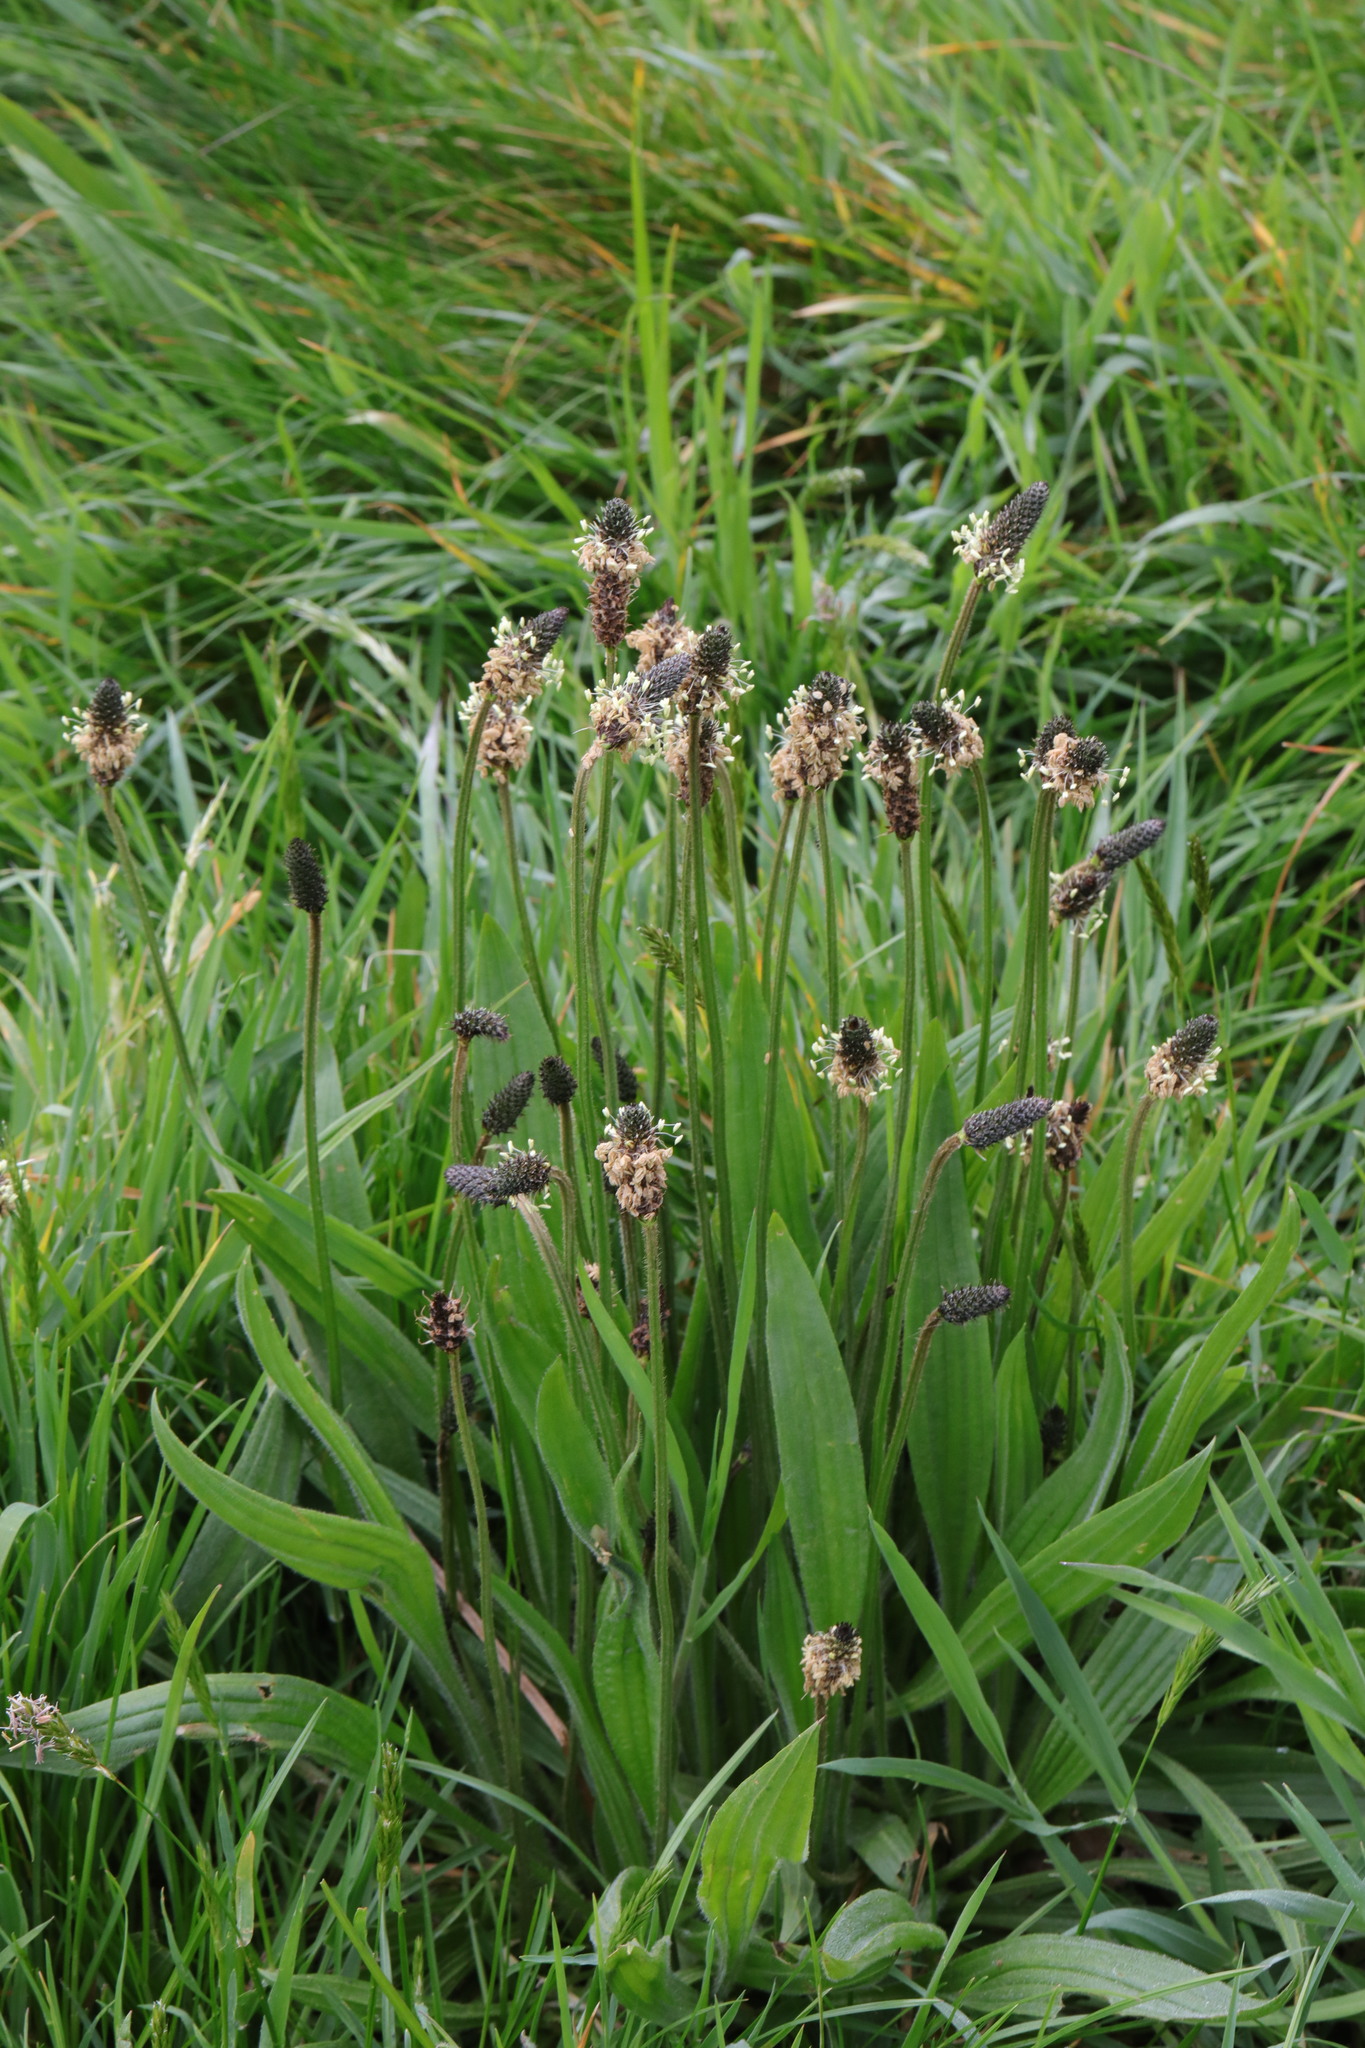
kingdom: Plantae
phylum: Tracheophyta
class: Magnoliopsida
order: Lamiales
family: Plantaginaceae
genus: Plantago
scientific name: Plantago lanceolata
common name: Ribwort plantain
